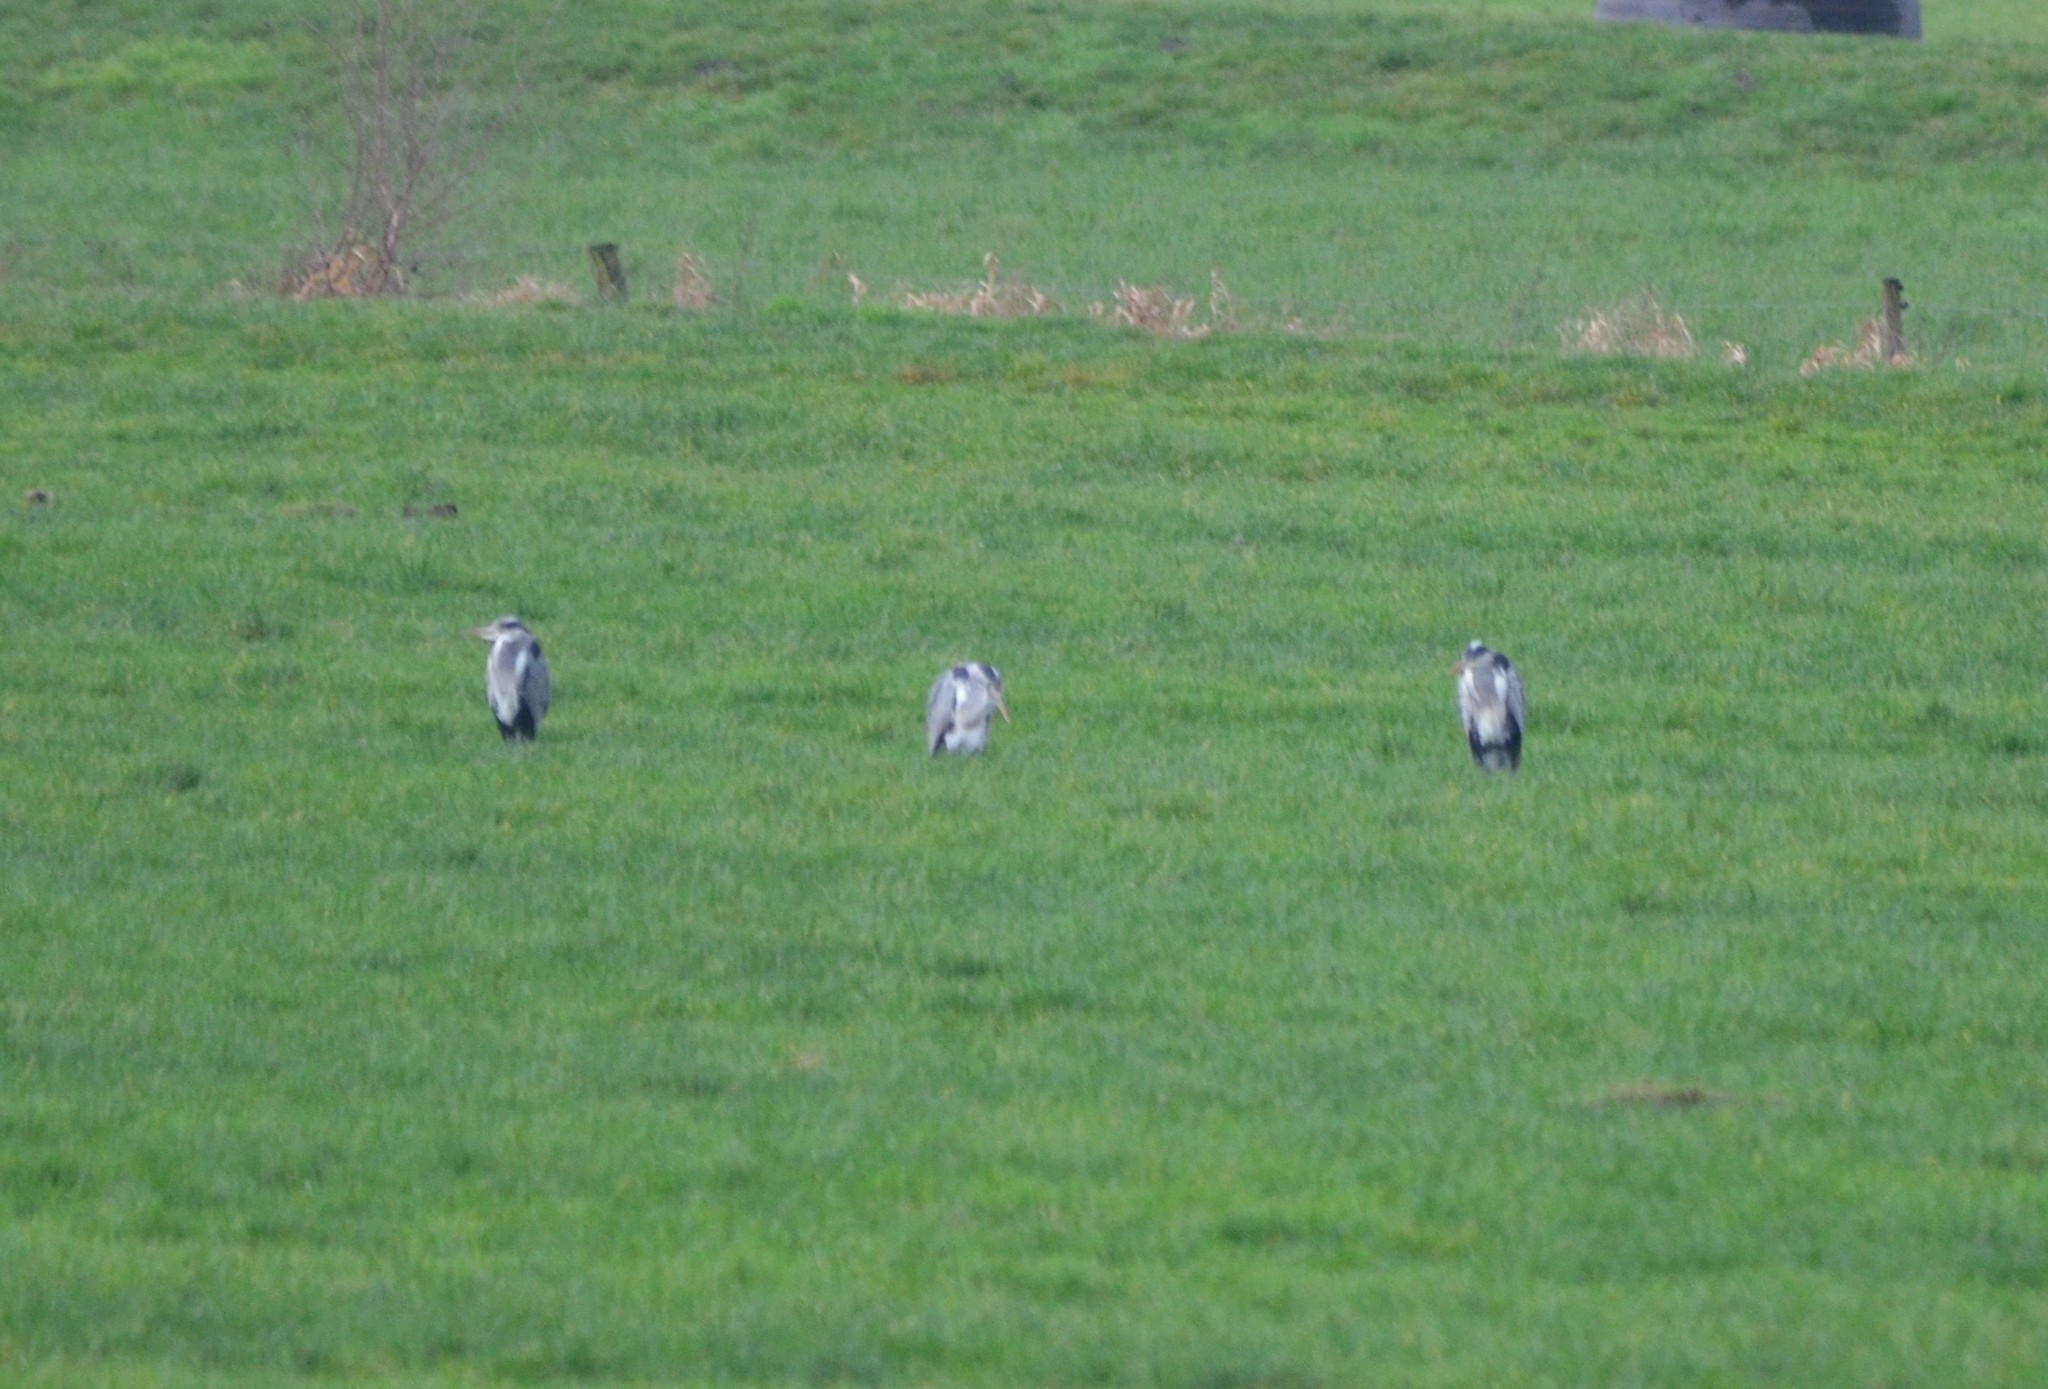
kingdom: Animalia
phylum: Chordata
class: Aves
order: Pelecaniformes
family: Ardeidae
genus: Ardea
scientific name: Ardea cinerea
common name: Grey heron
